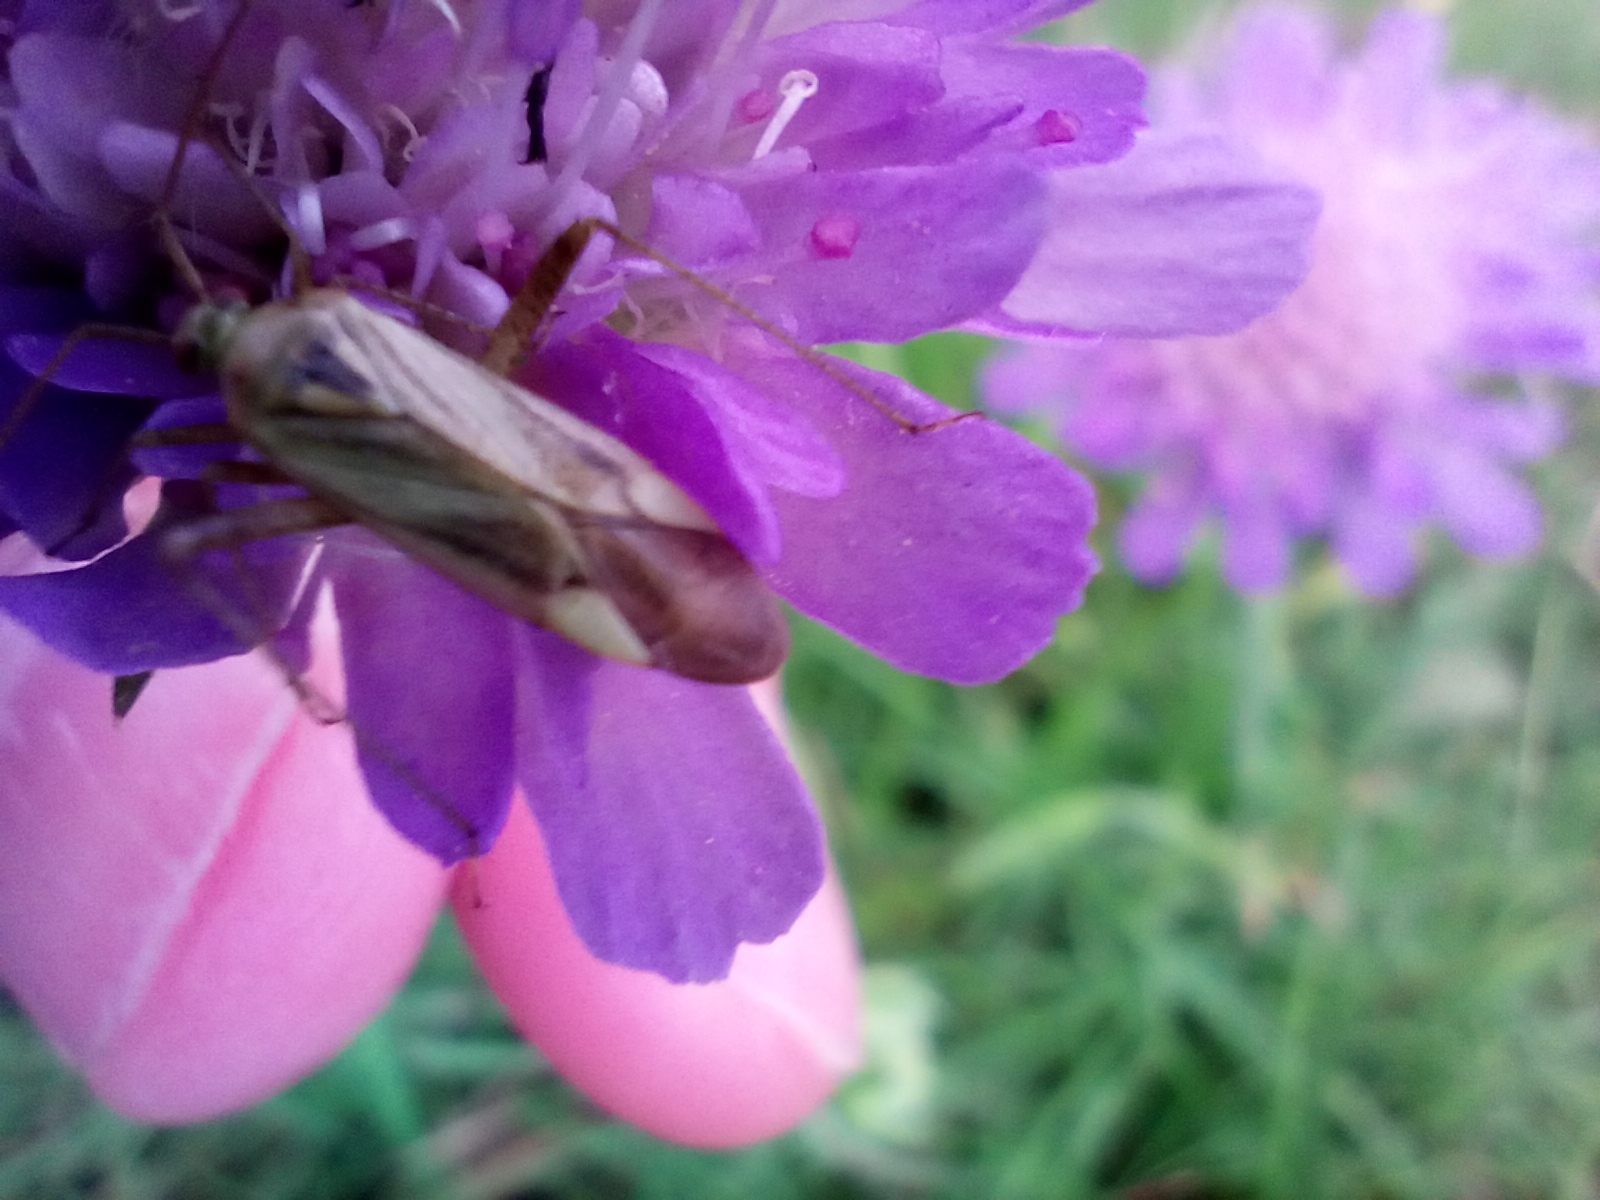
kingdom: Animalia
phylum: Arthropoda
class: Insecta
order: Hemiptera
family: Miridae
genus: Adelphocoris
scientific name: Adelphocoris lineolatus
